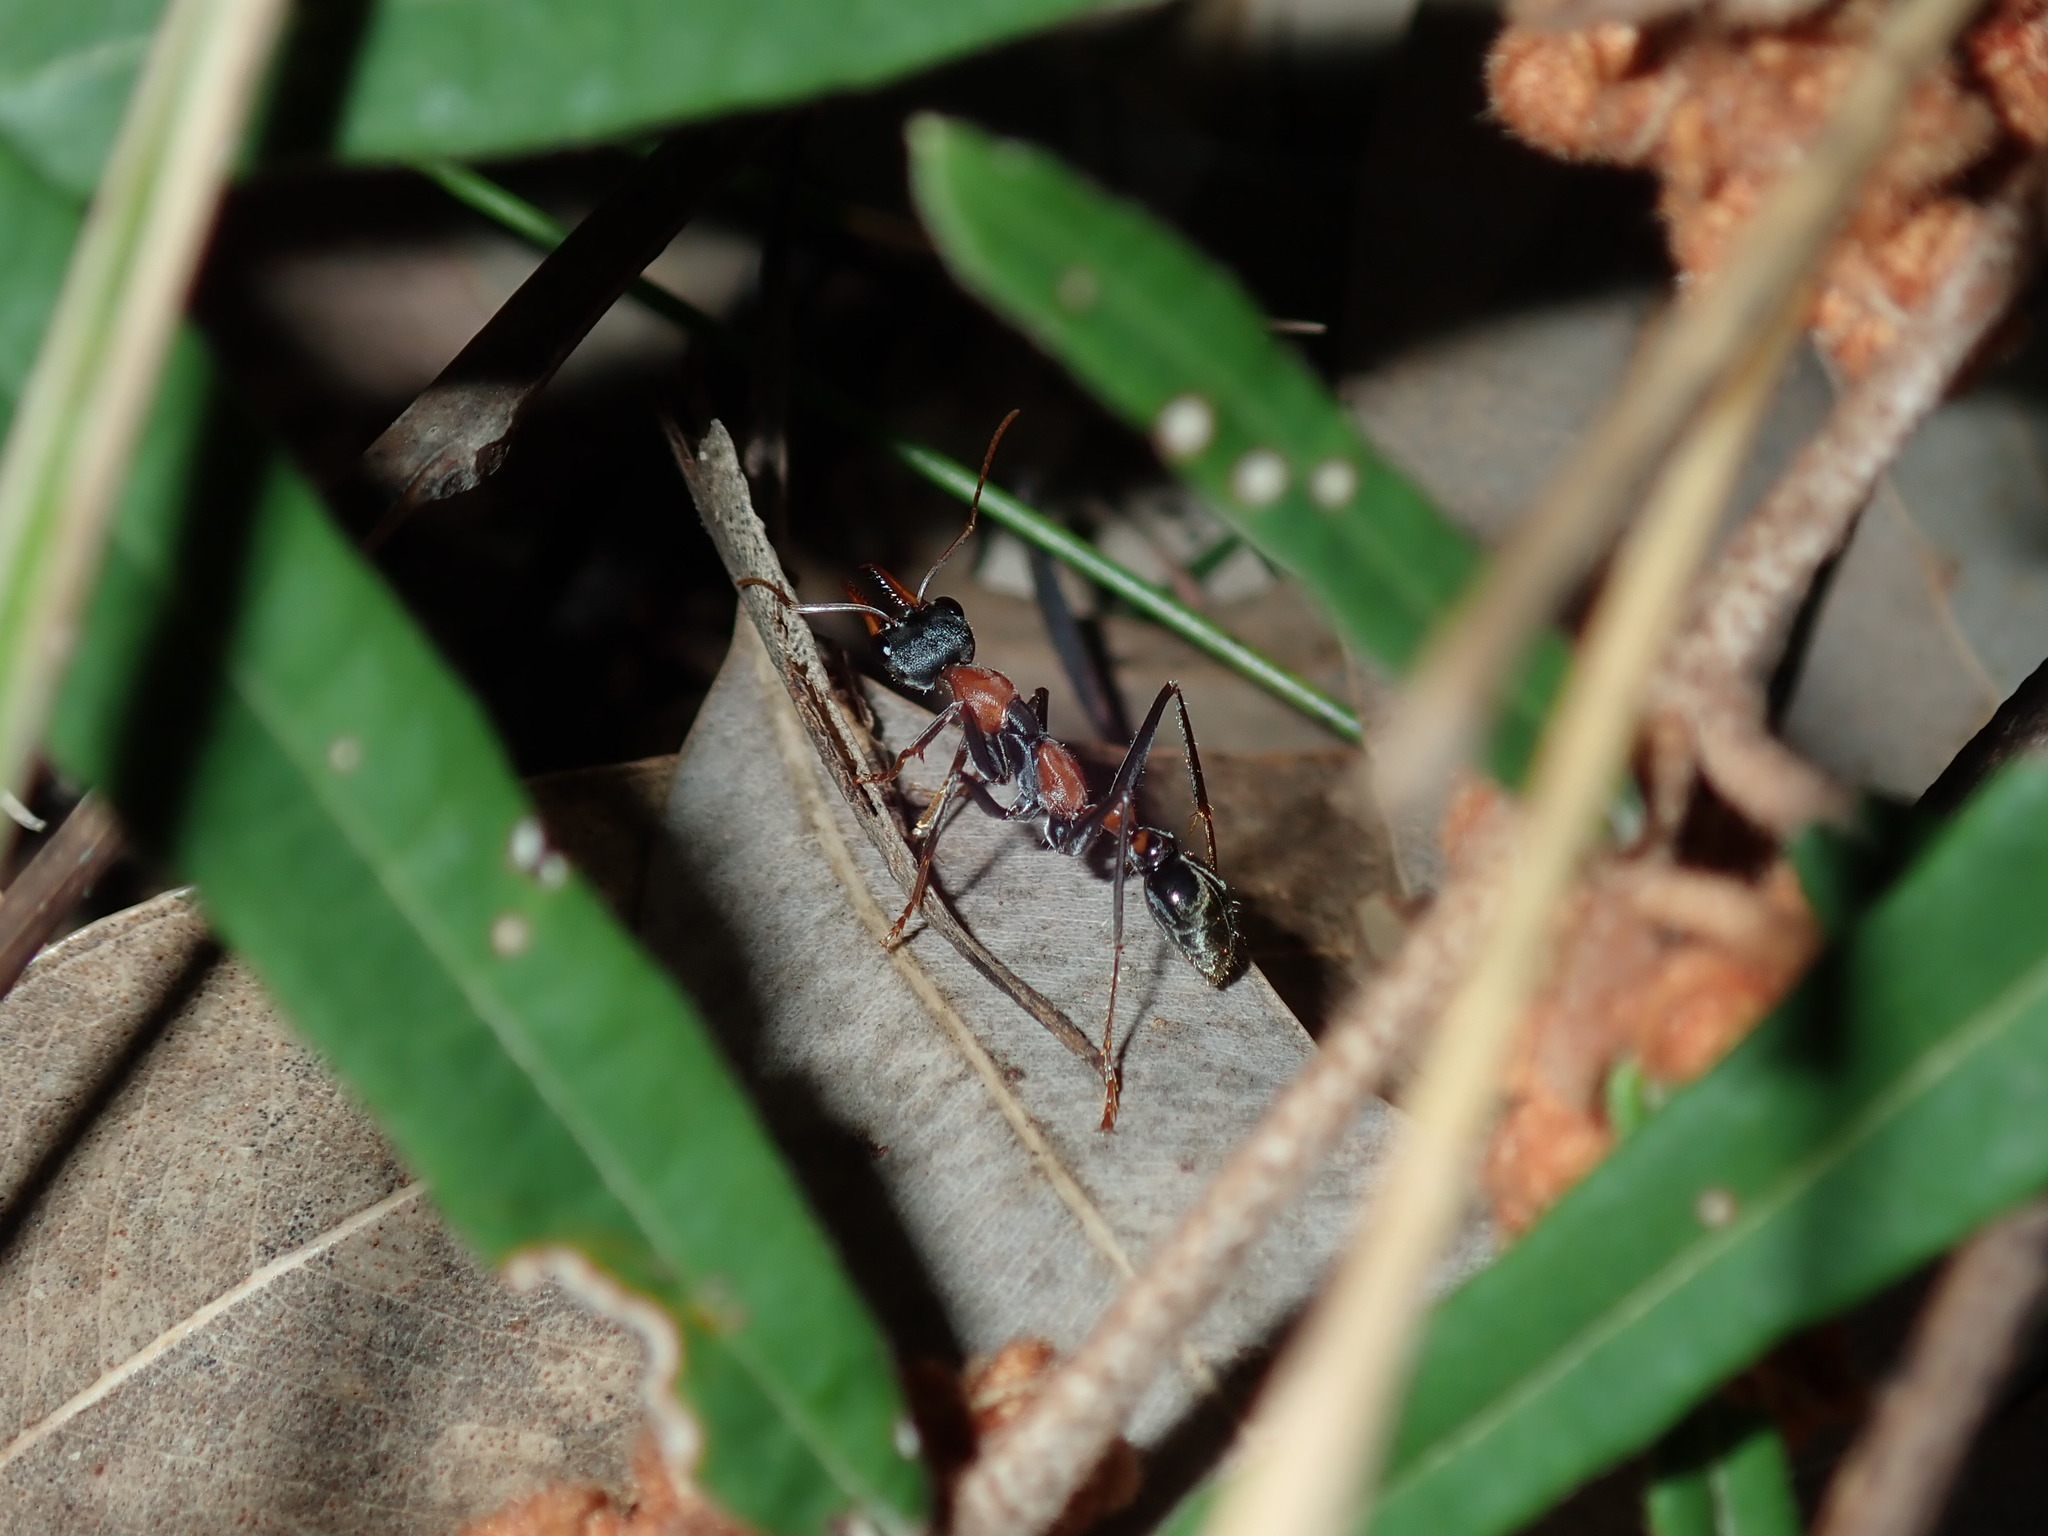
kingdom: Animalia
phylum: Arthropoda
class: Insecta
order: Hymenoptera
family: Formicidae
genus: Myrmecia
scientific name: Myrmecia nigrocincta
